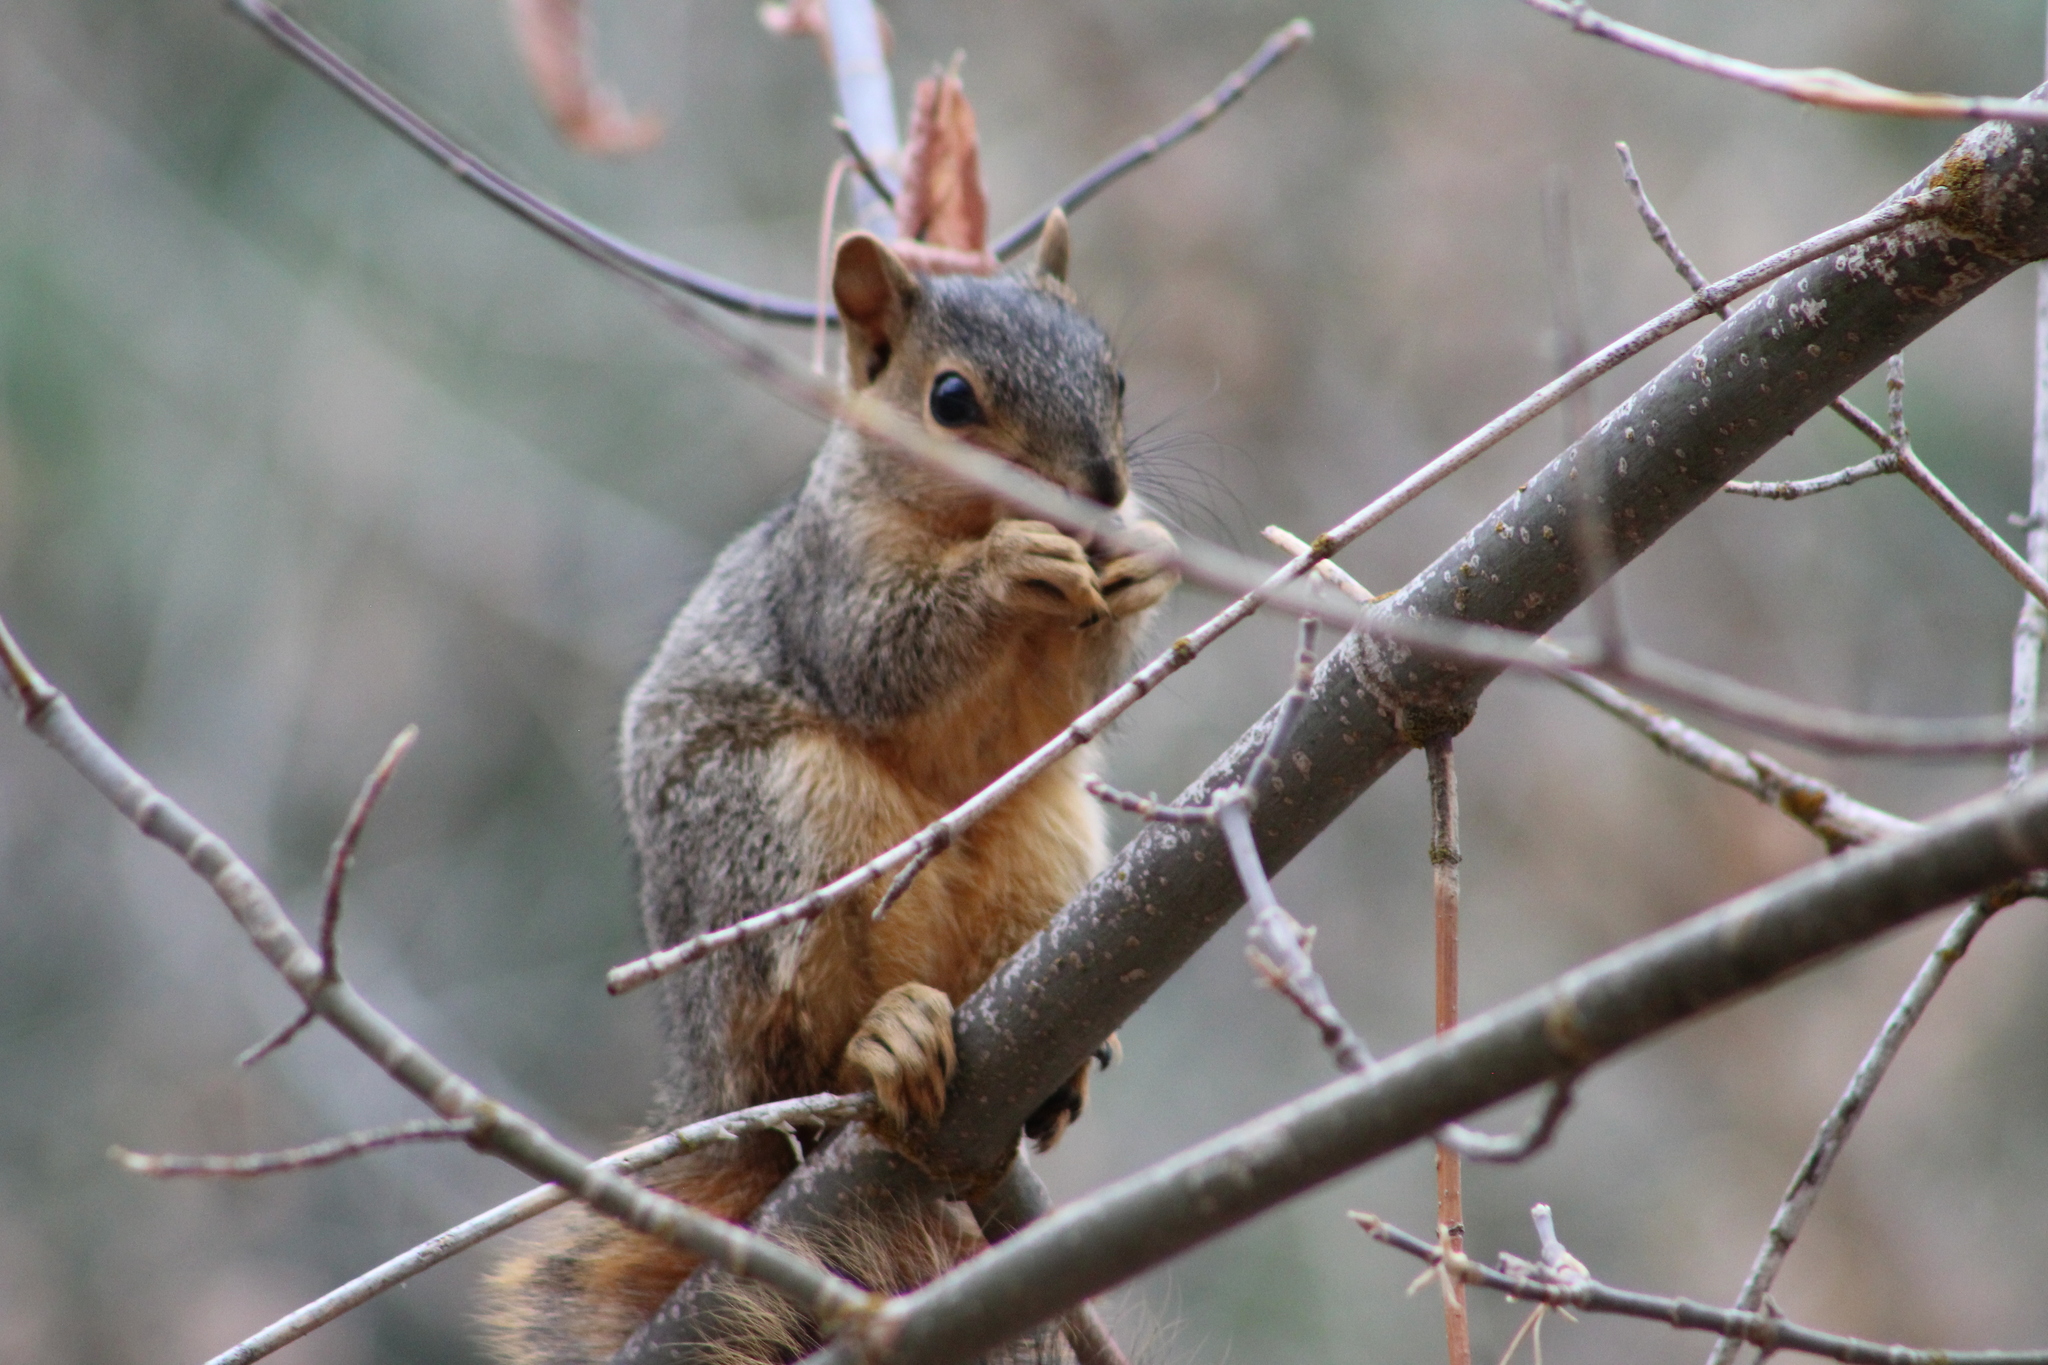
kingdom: Animalia
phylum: Chordata
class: Mammalia
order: Rodentia
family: Sciuridae
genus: Sciurus
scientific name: Sciurus niger
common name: Fox squirrel
